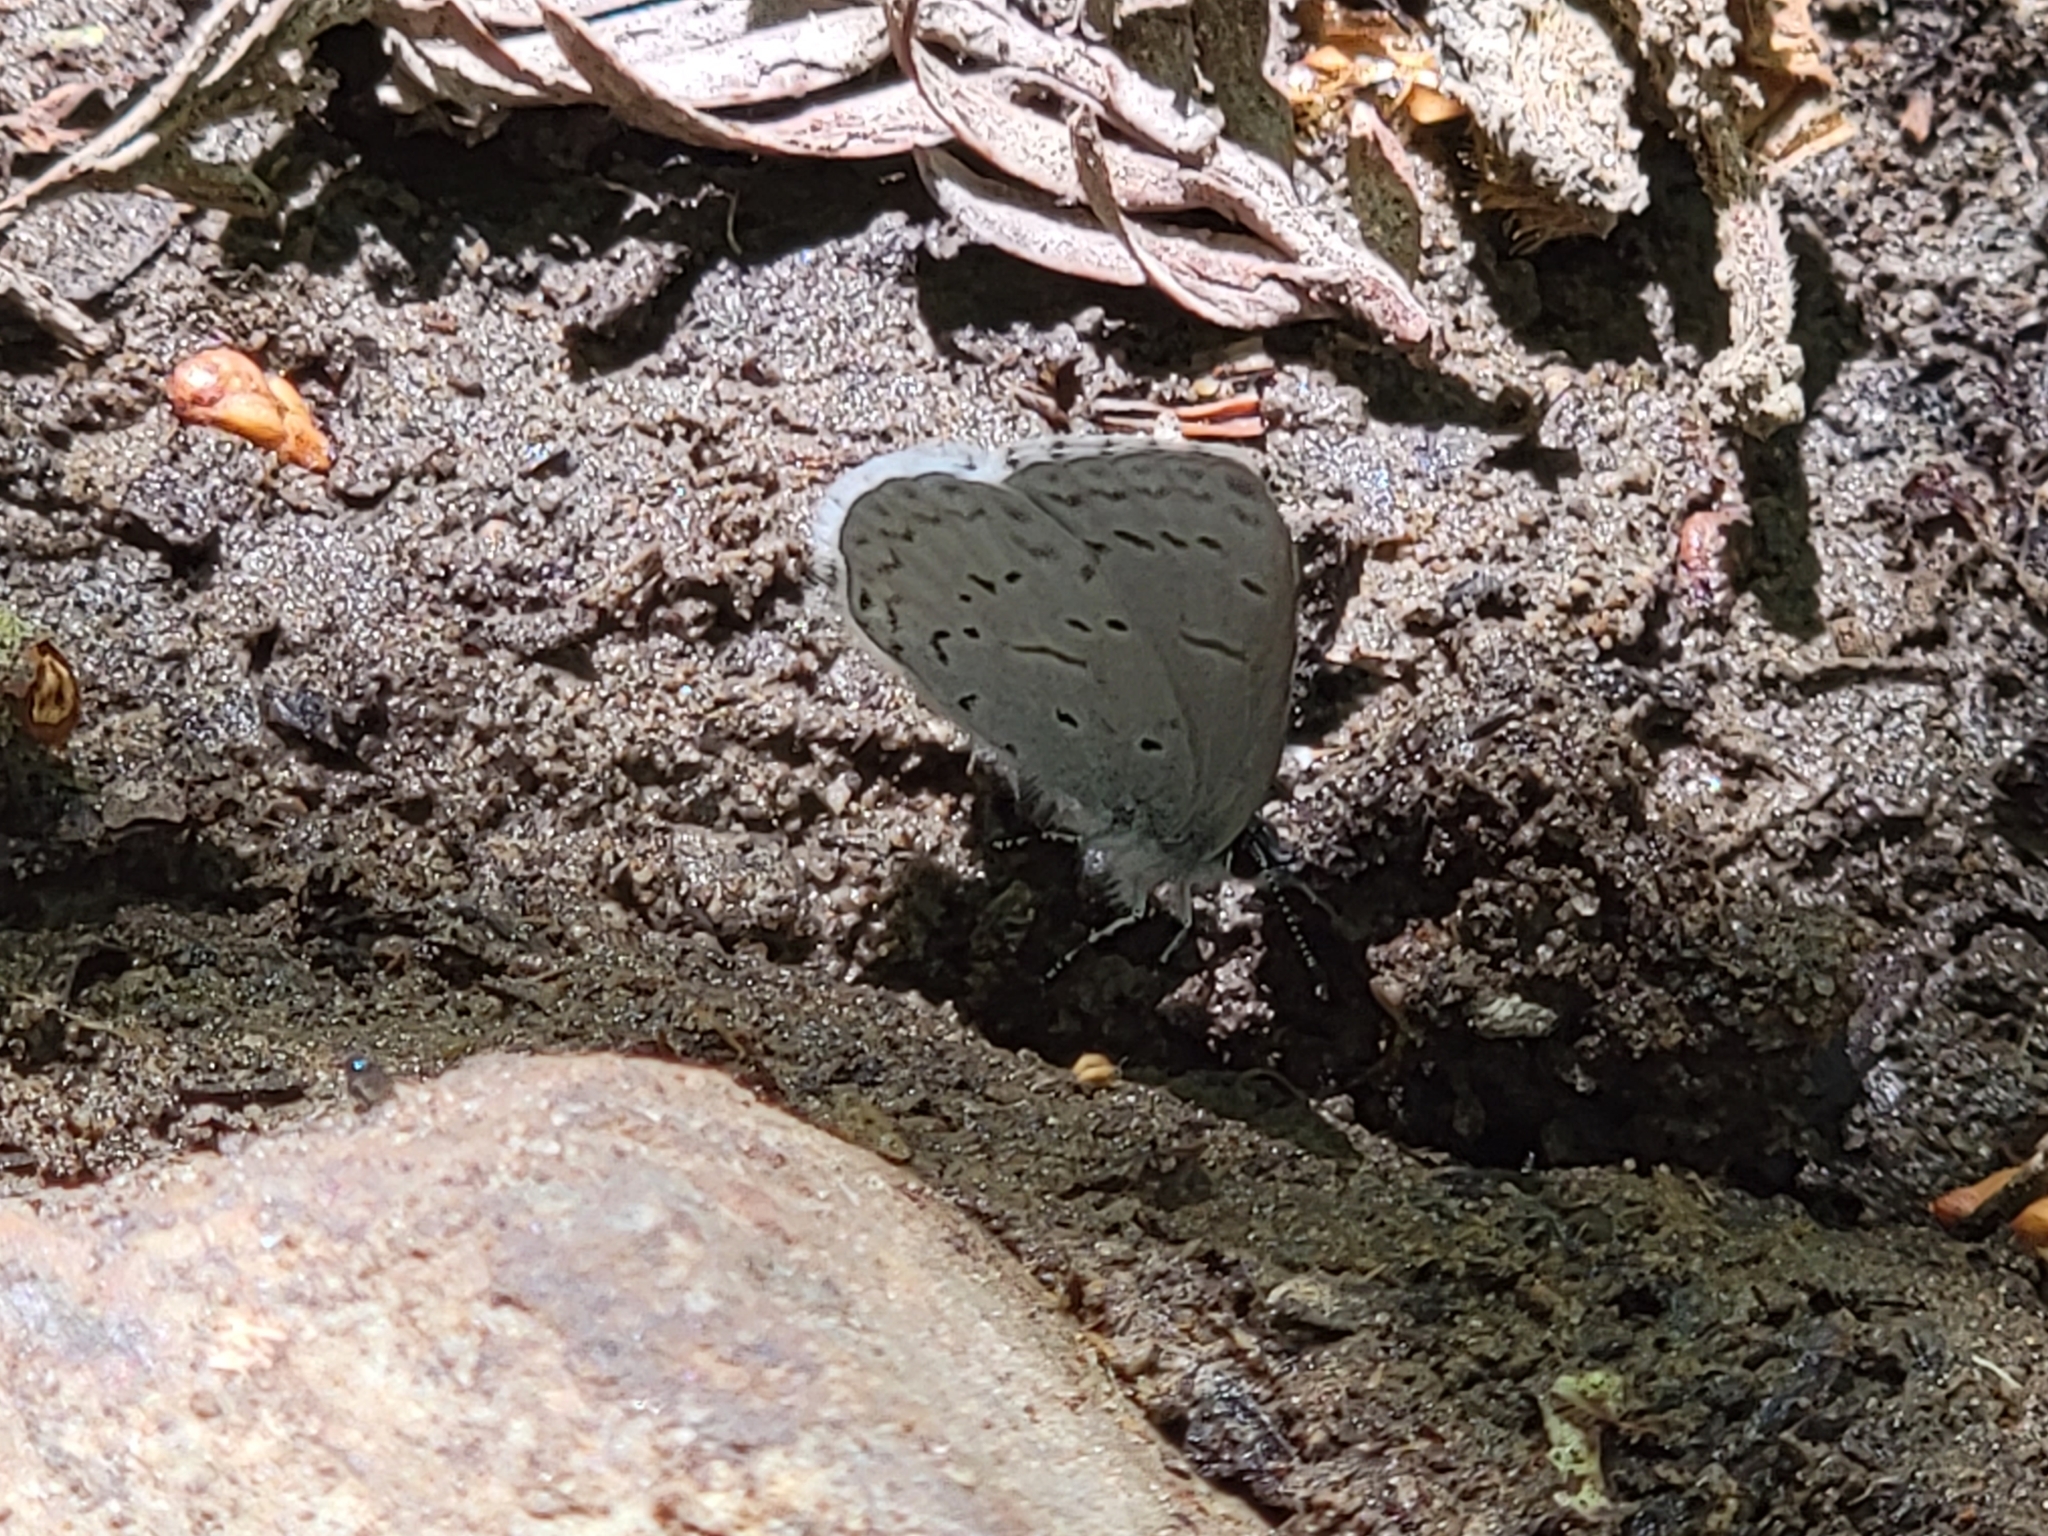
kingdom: Animalia
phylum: Arthropoda
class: Insecta
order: Lepidoptera
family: Lycaenidae
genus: Celastrina
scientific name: Celastrina ladon
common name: Spring azure
